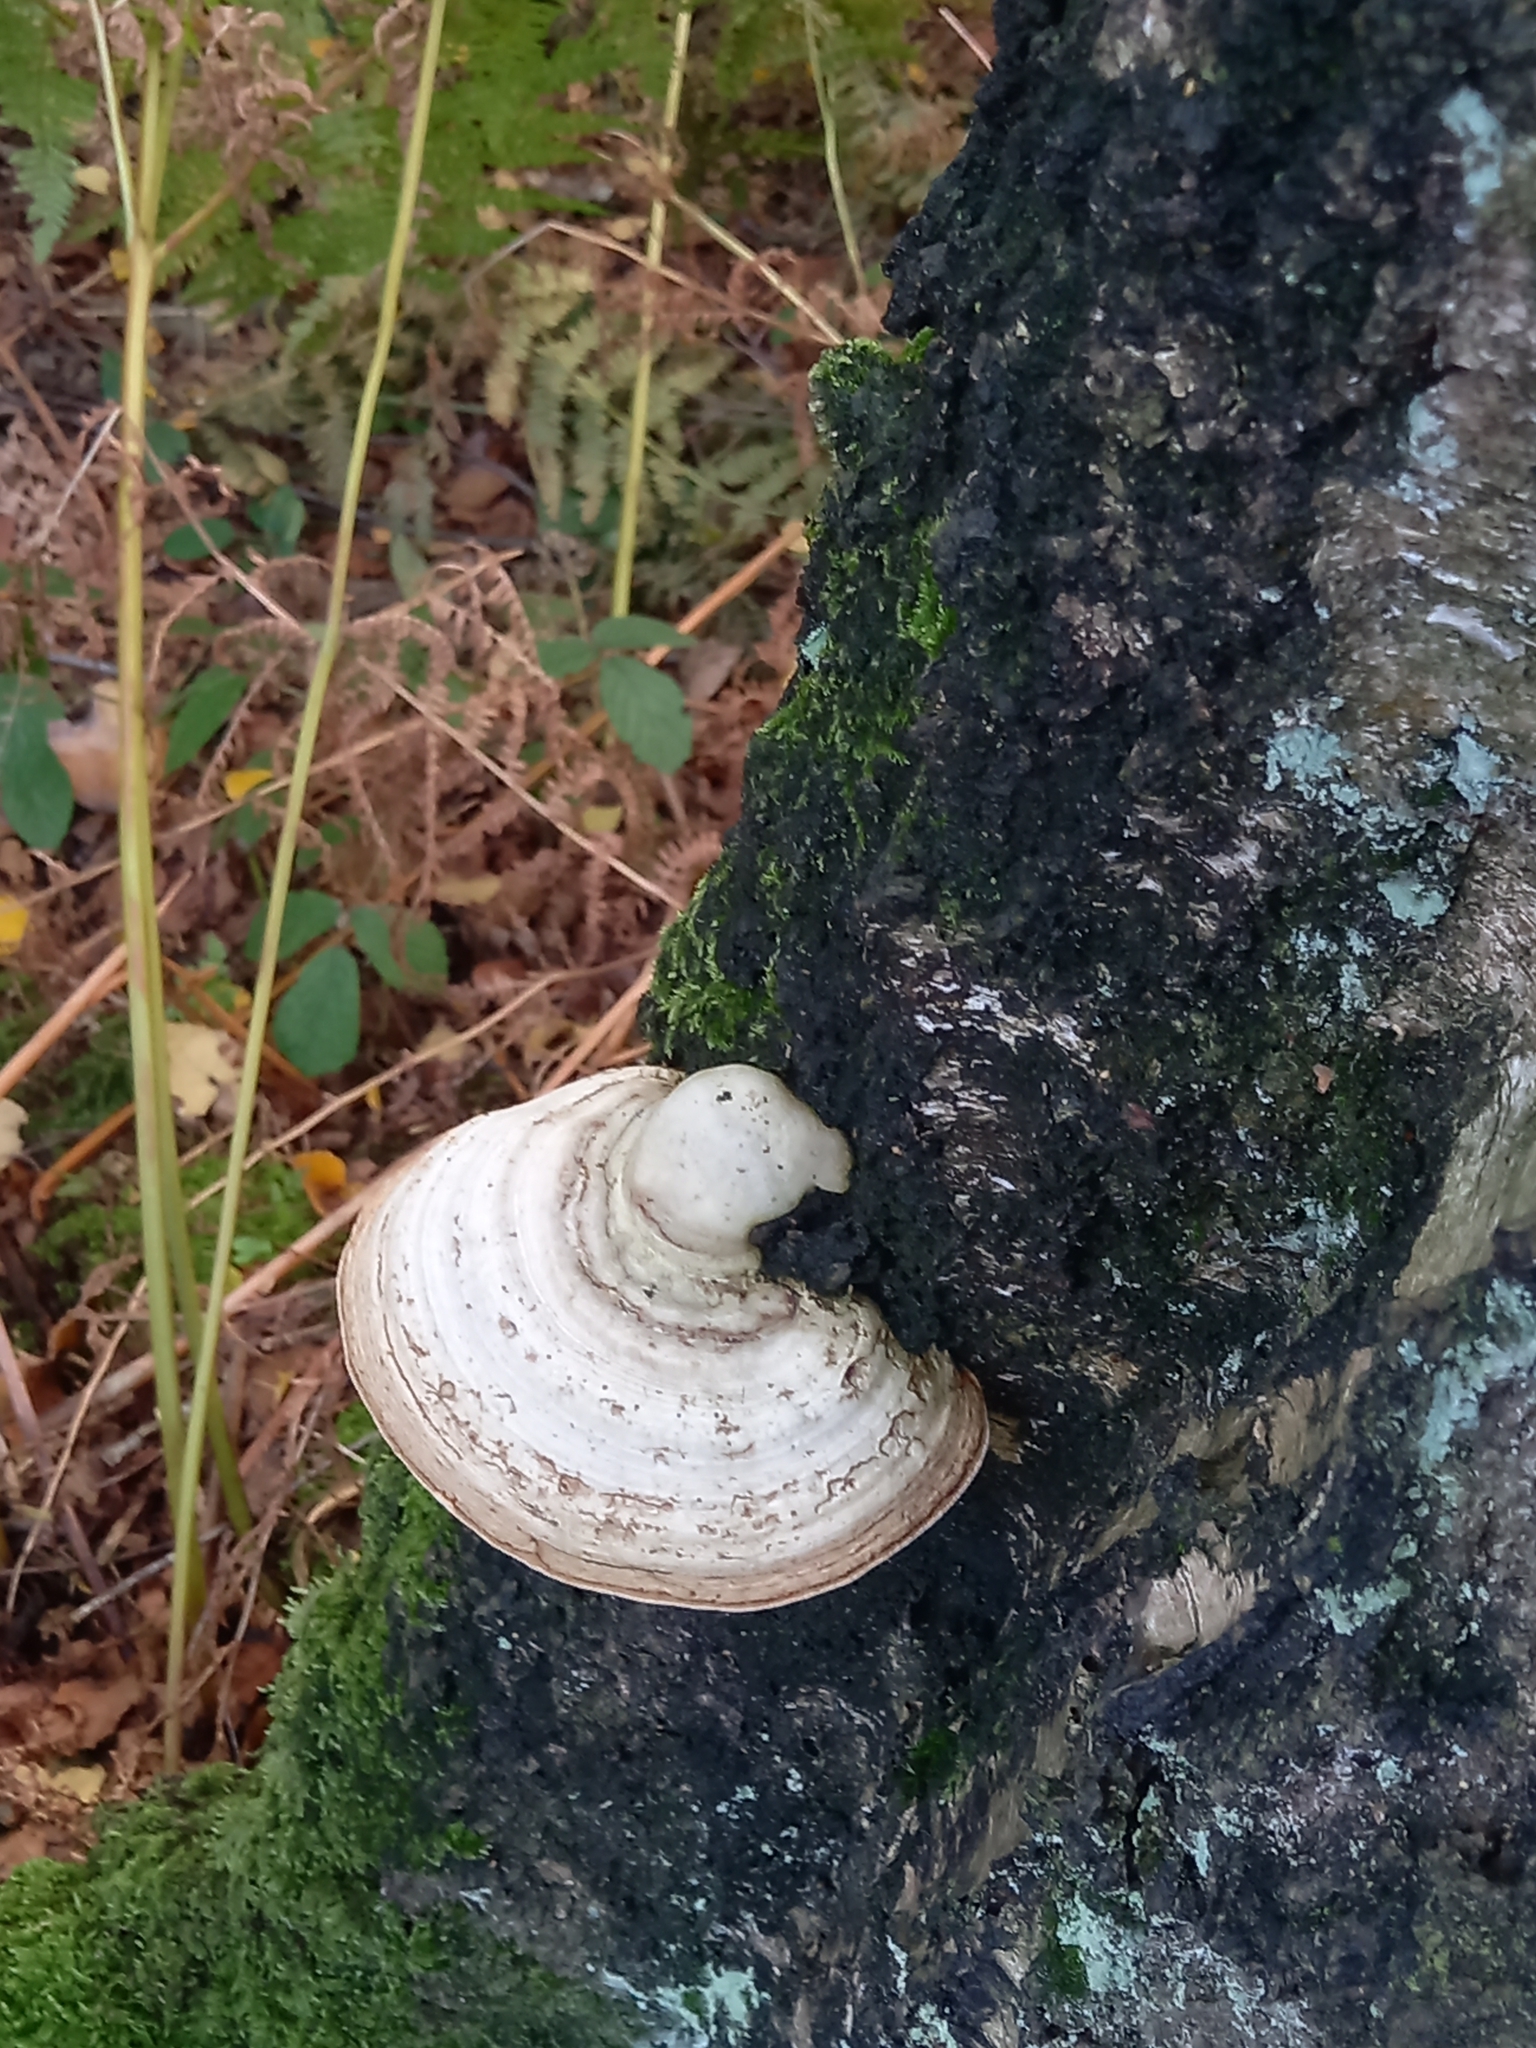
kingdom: Fungi
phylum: Basidiomycota
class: Agaricomycetes
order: Polyporales
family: Polyporaceae
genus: Fomes
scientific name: Fomes fomentarius
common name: Hoof fungus
